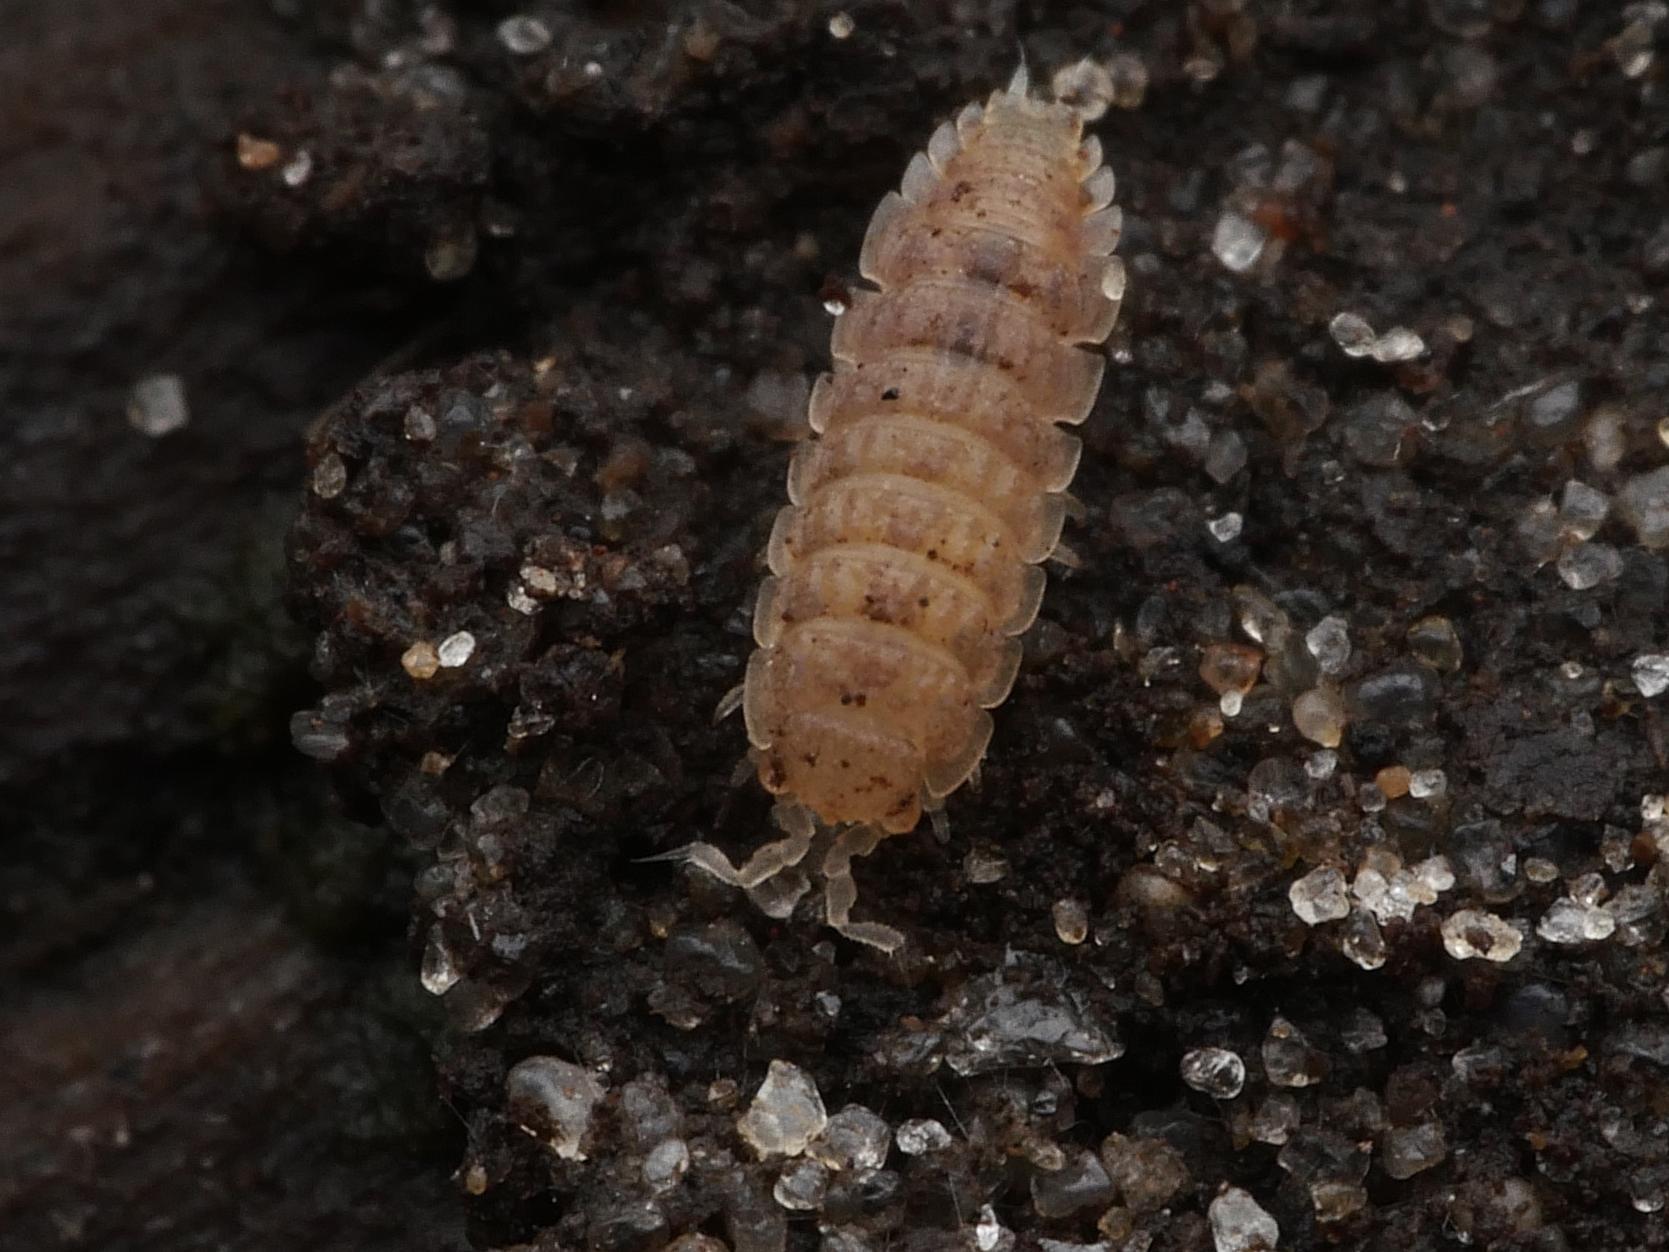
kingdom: Animalia
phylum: Arthropoda
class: Malacostraca
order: Isopoda
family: Trichoniscidae
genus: Haplophthalmus
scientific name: Haplophthalmus danicus
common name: Pillbug
